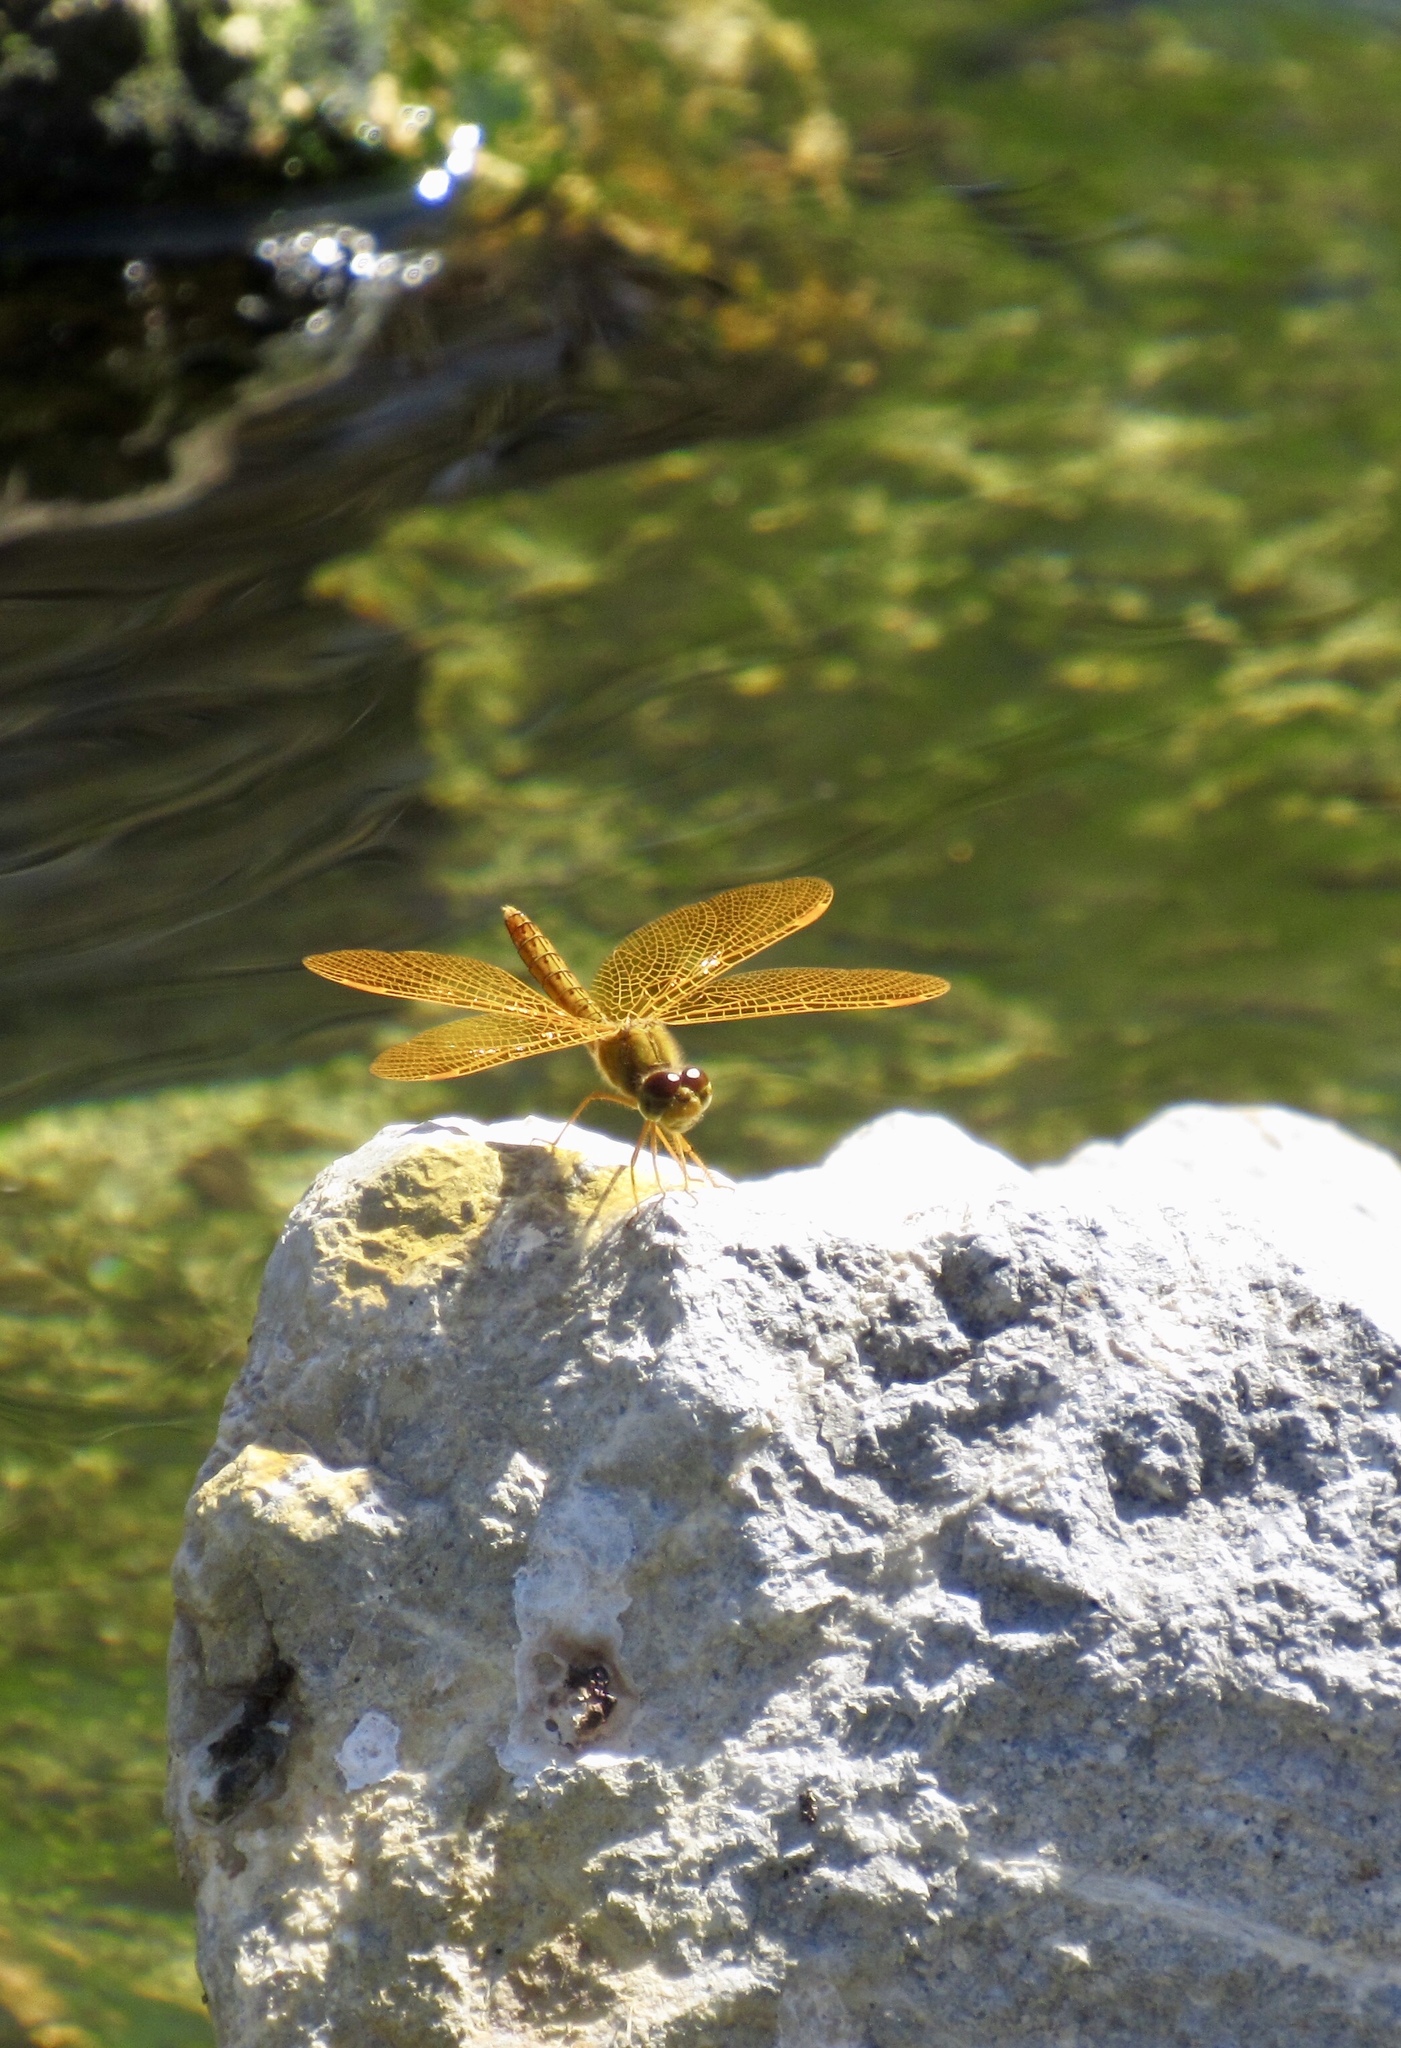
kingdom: Animalia
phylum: Arthropoda
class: Insecta
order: Odonata
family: Libellulidae
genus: Perithemis
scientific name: Perithemis intensa
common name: Mexican amberwing
